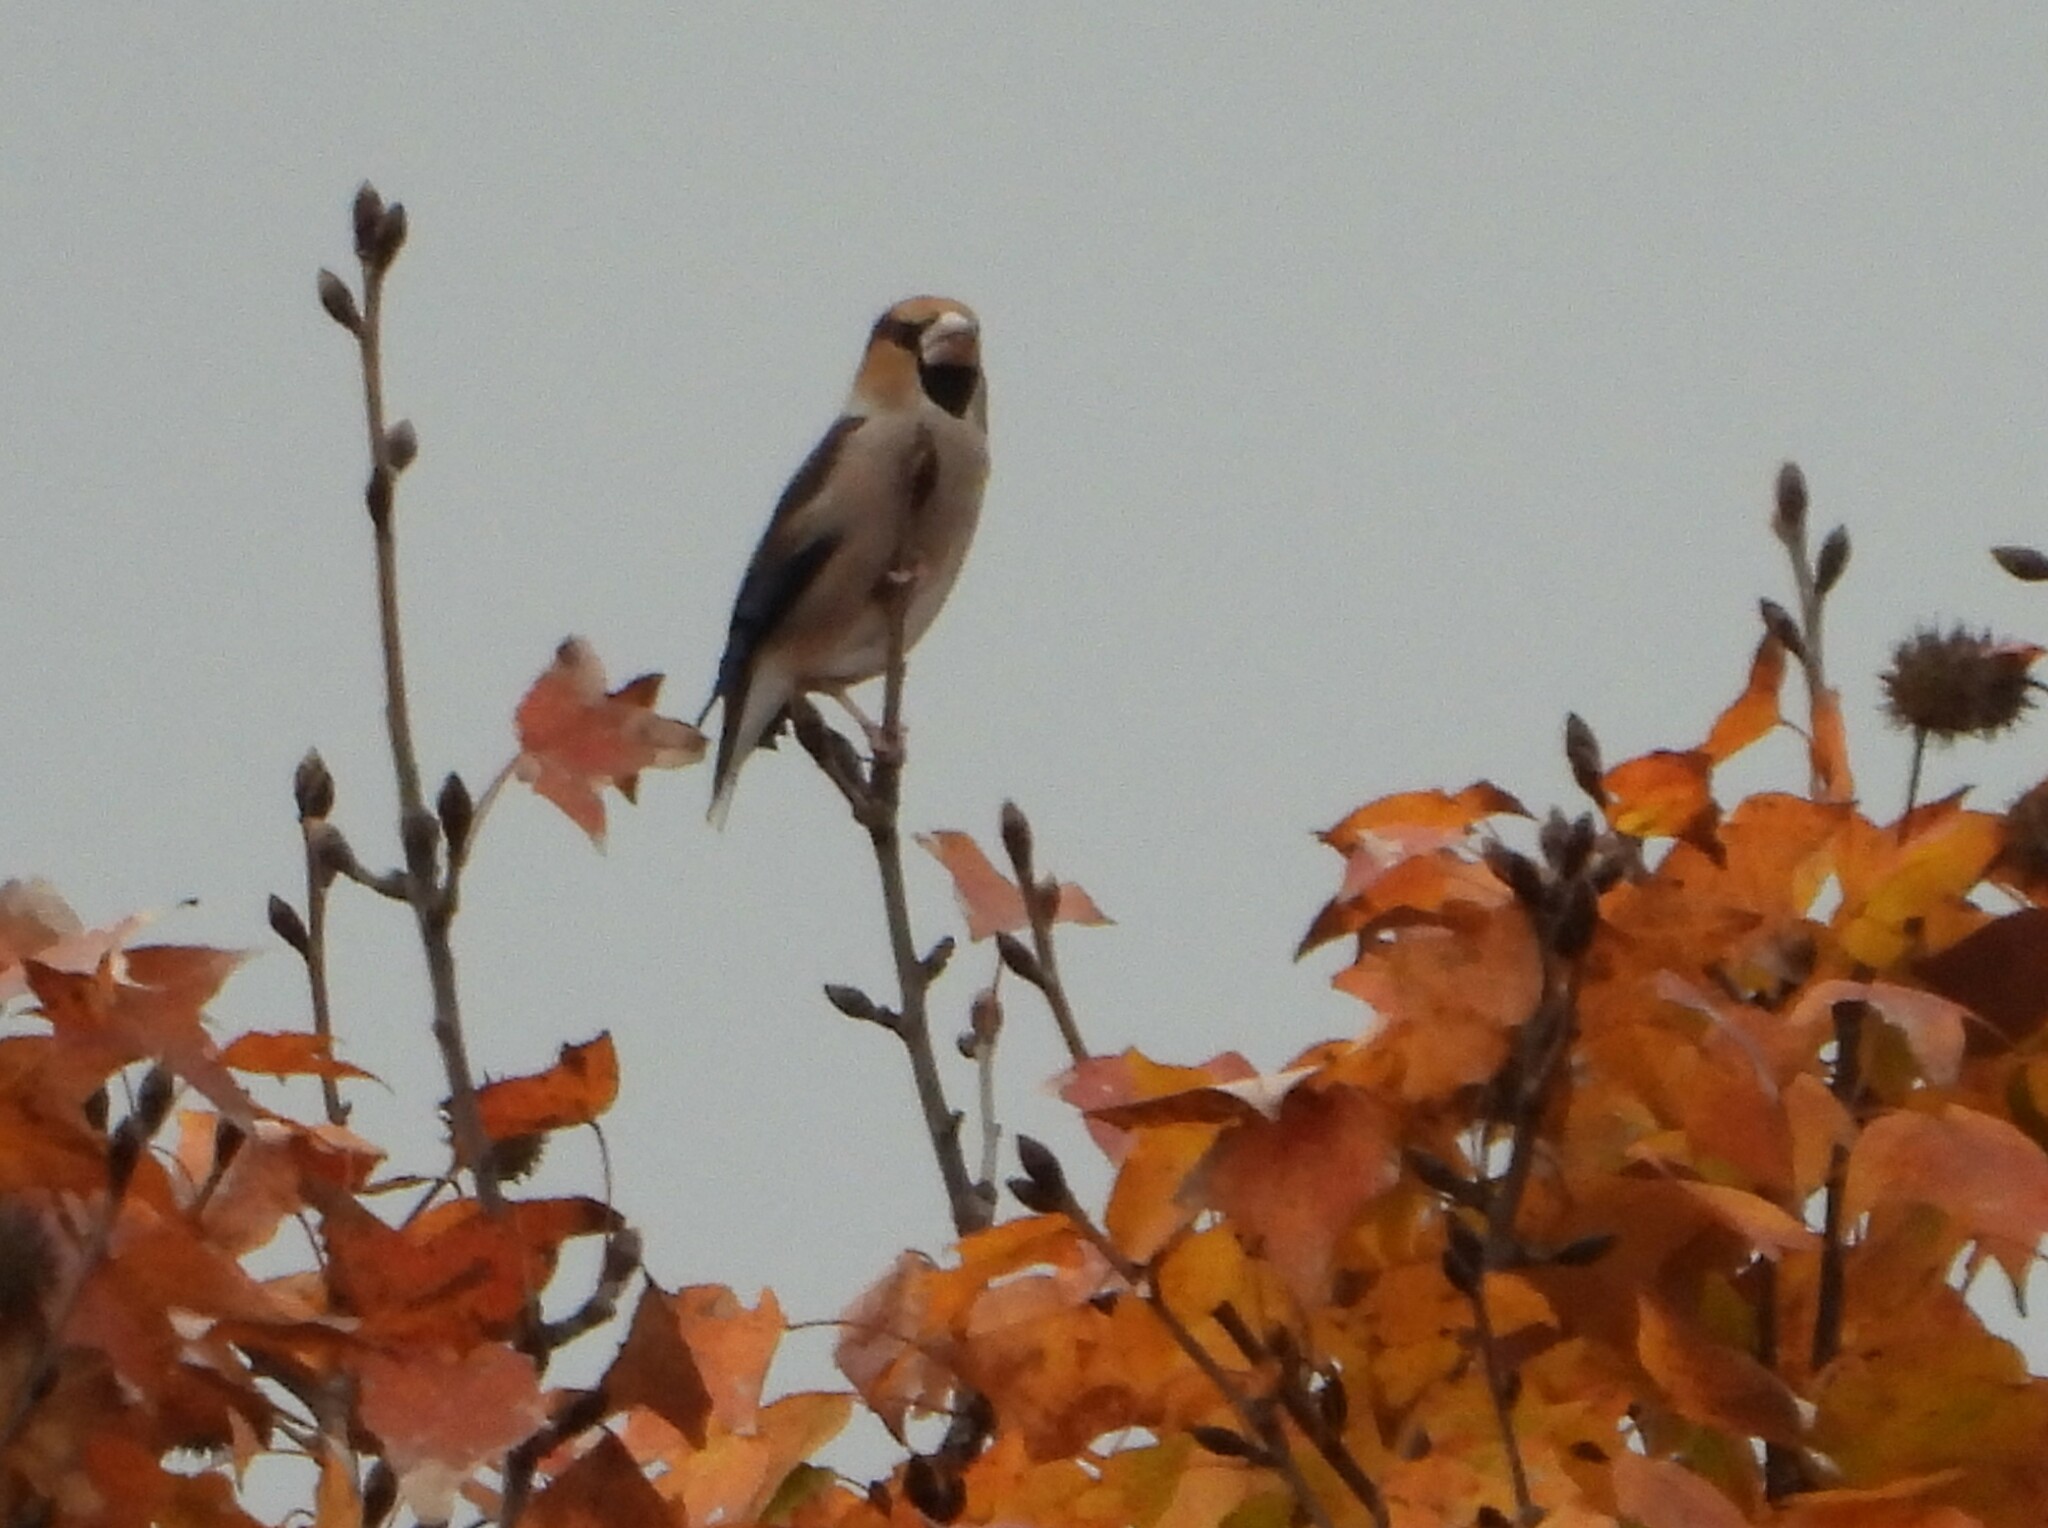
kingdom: Animalia
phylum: Chordata
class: Aves
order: Passeriformes
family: Fringillidae
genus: Coccothraustes
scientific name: Coccothraustes coccothraustes
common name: Hawfinch
